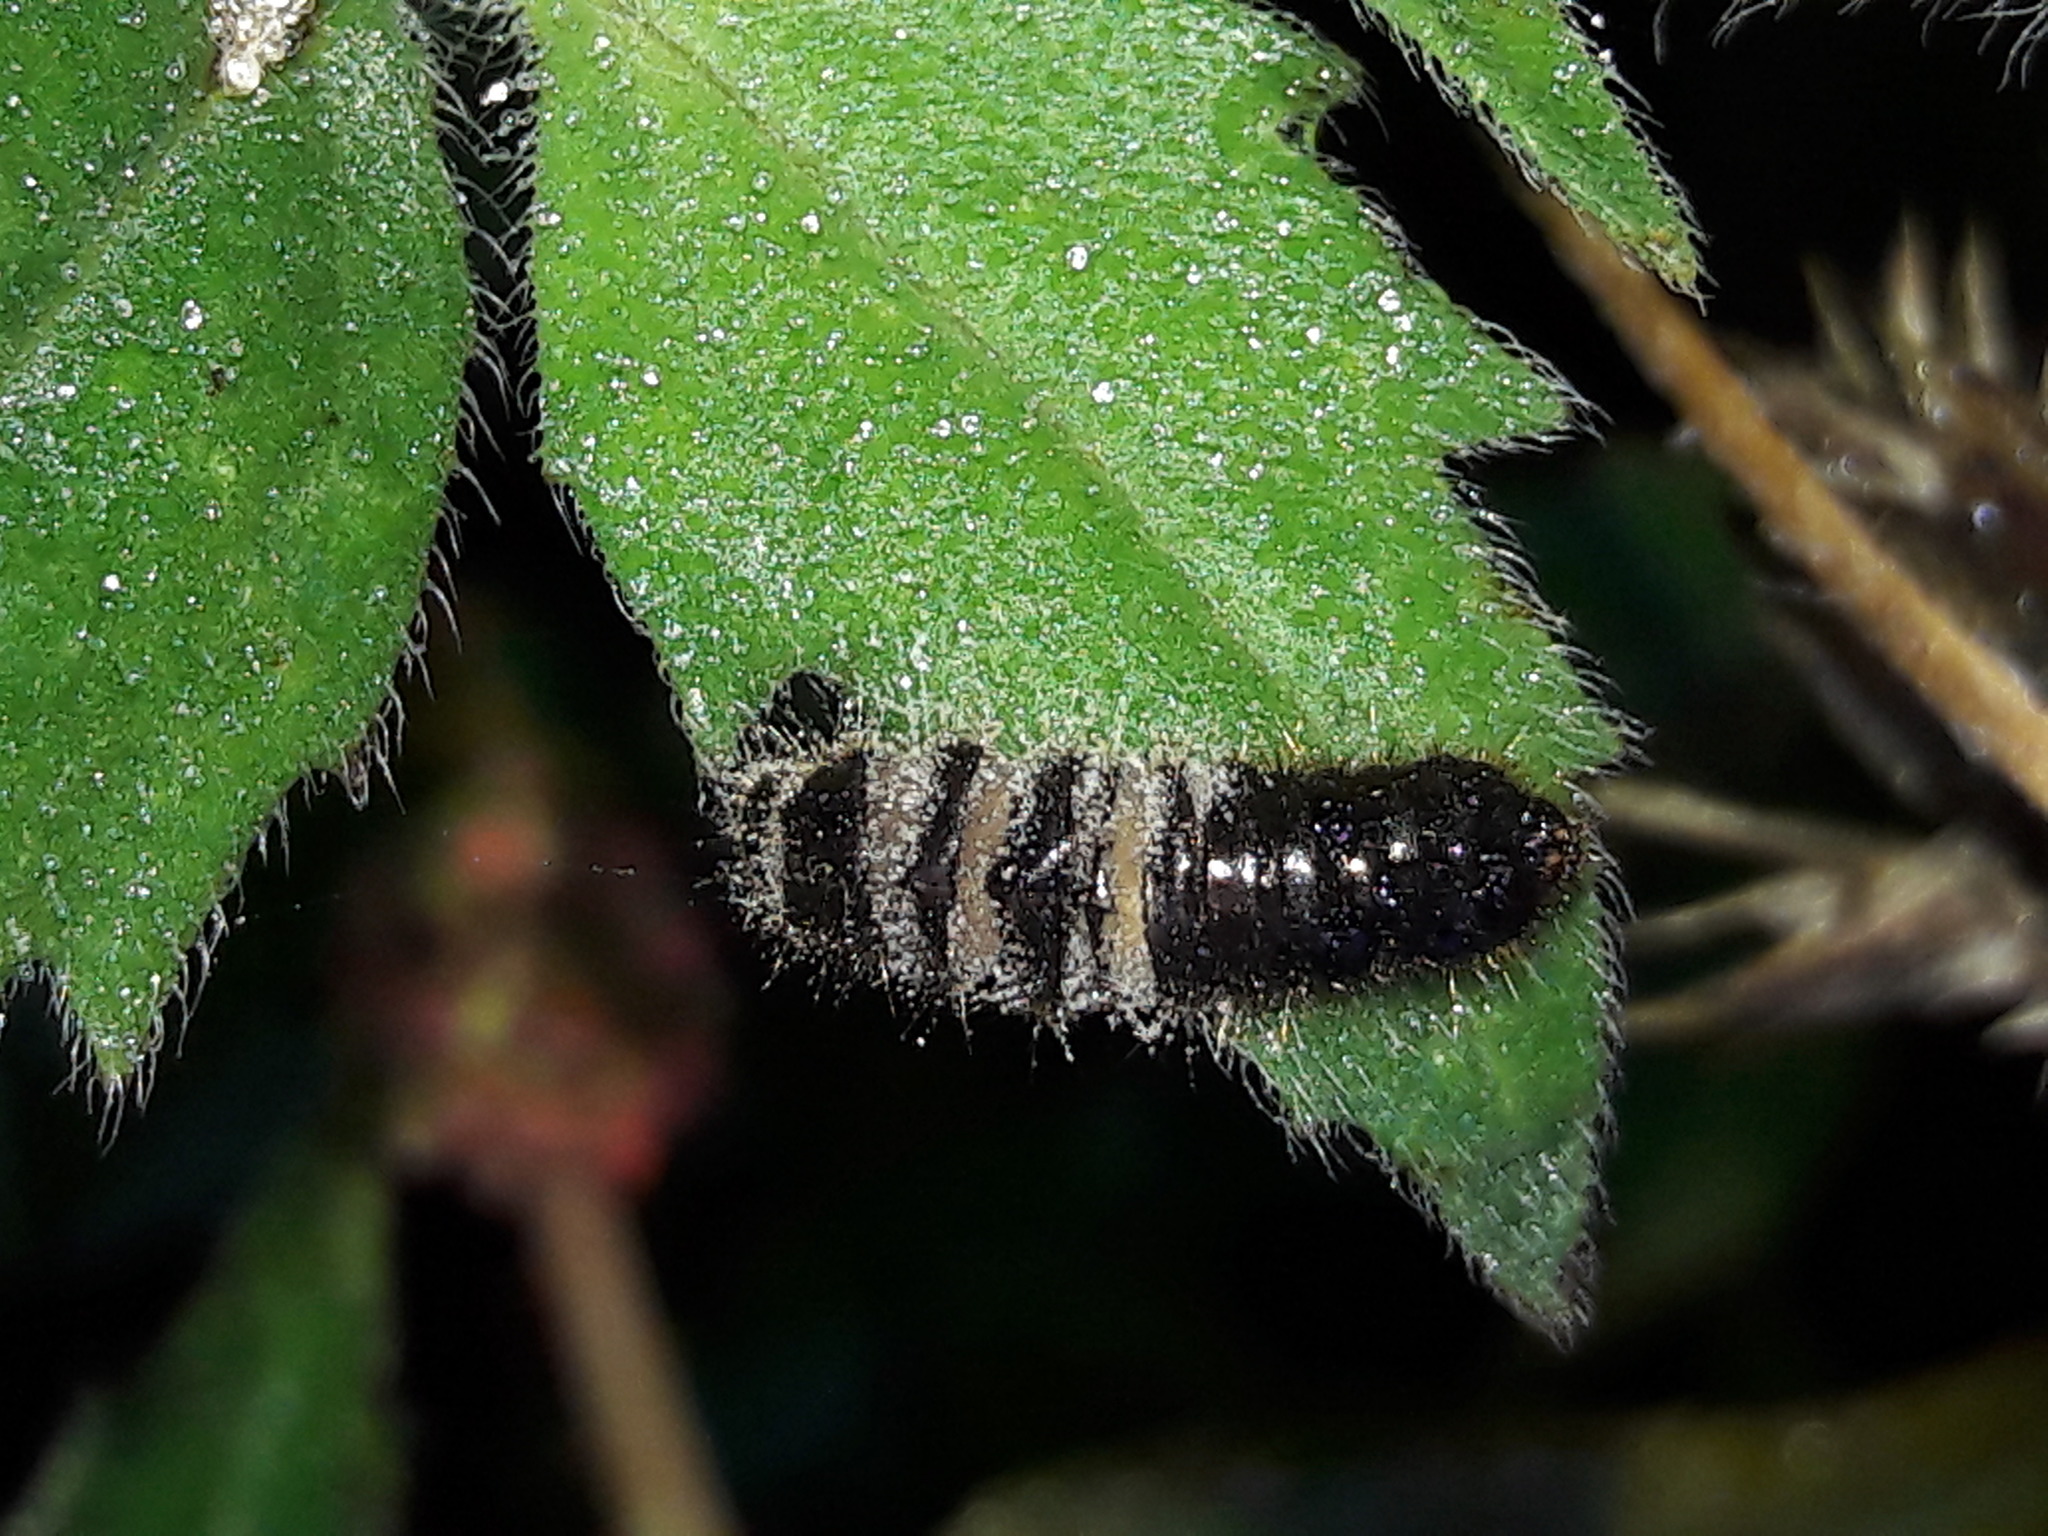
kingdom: Animalia
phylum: Arthropoda
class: Insecta
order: Coleoptera
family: Tenebrionidae
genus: Lagria
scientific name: Lagria villosa
